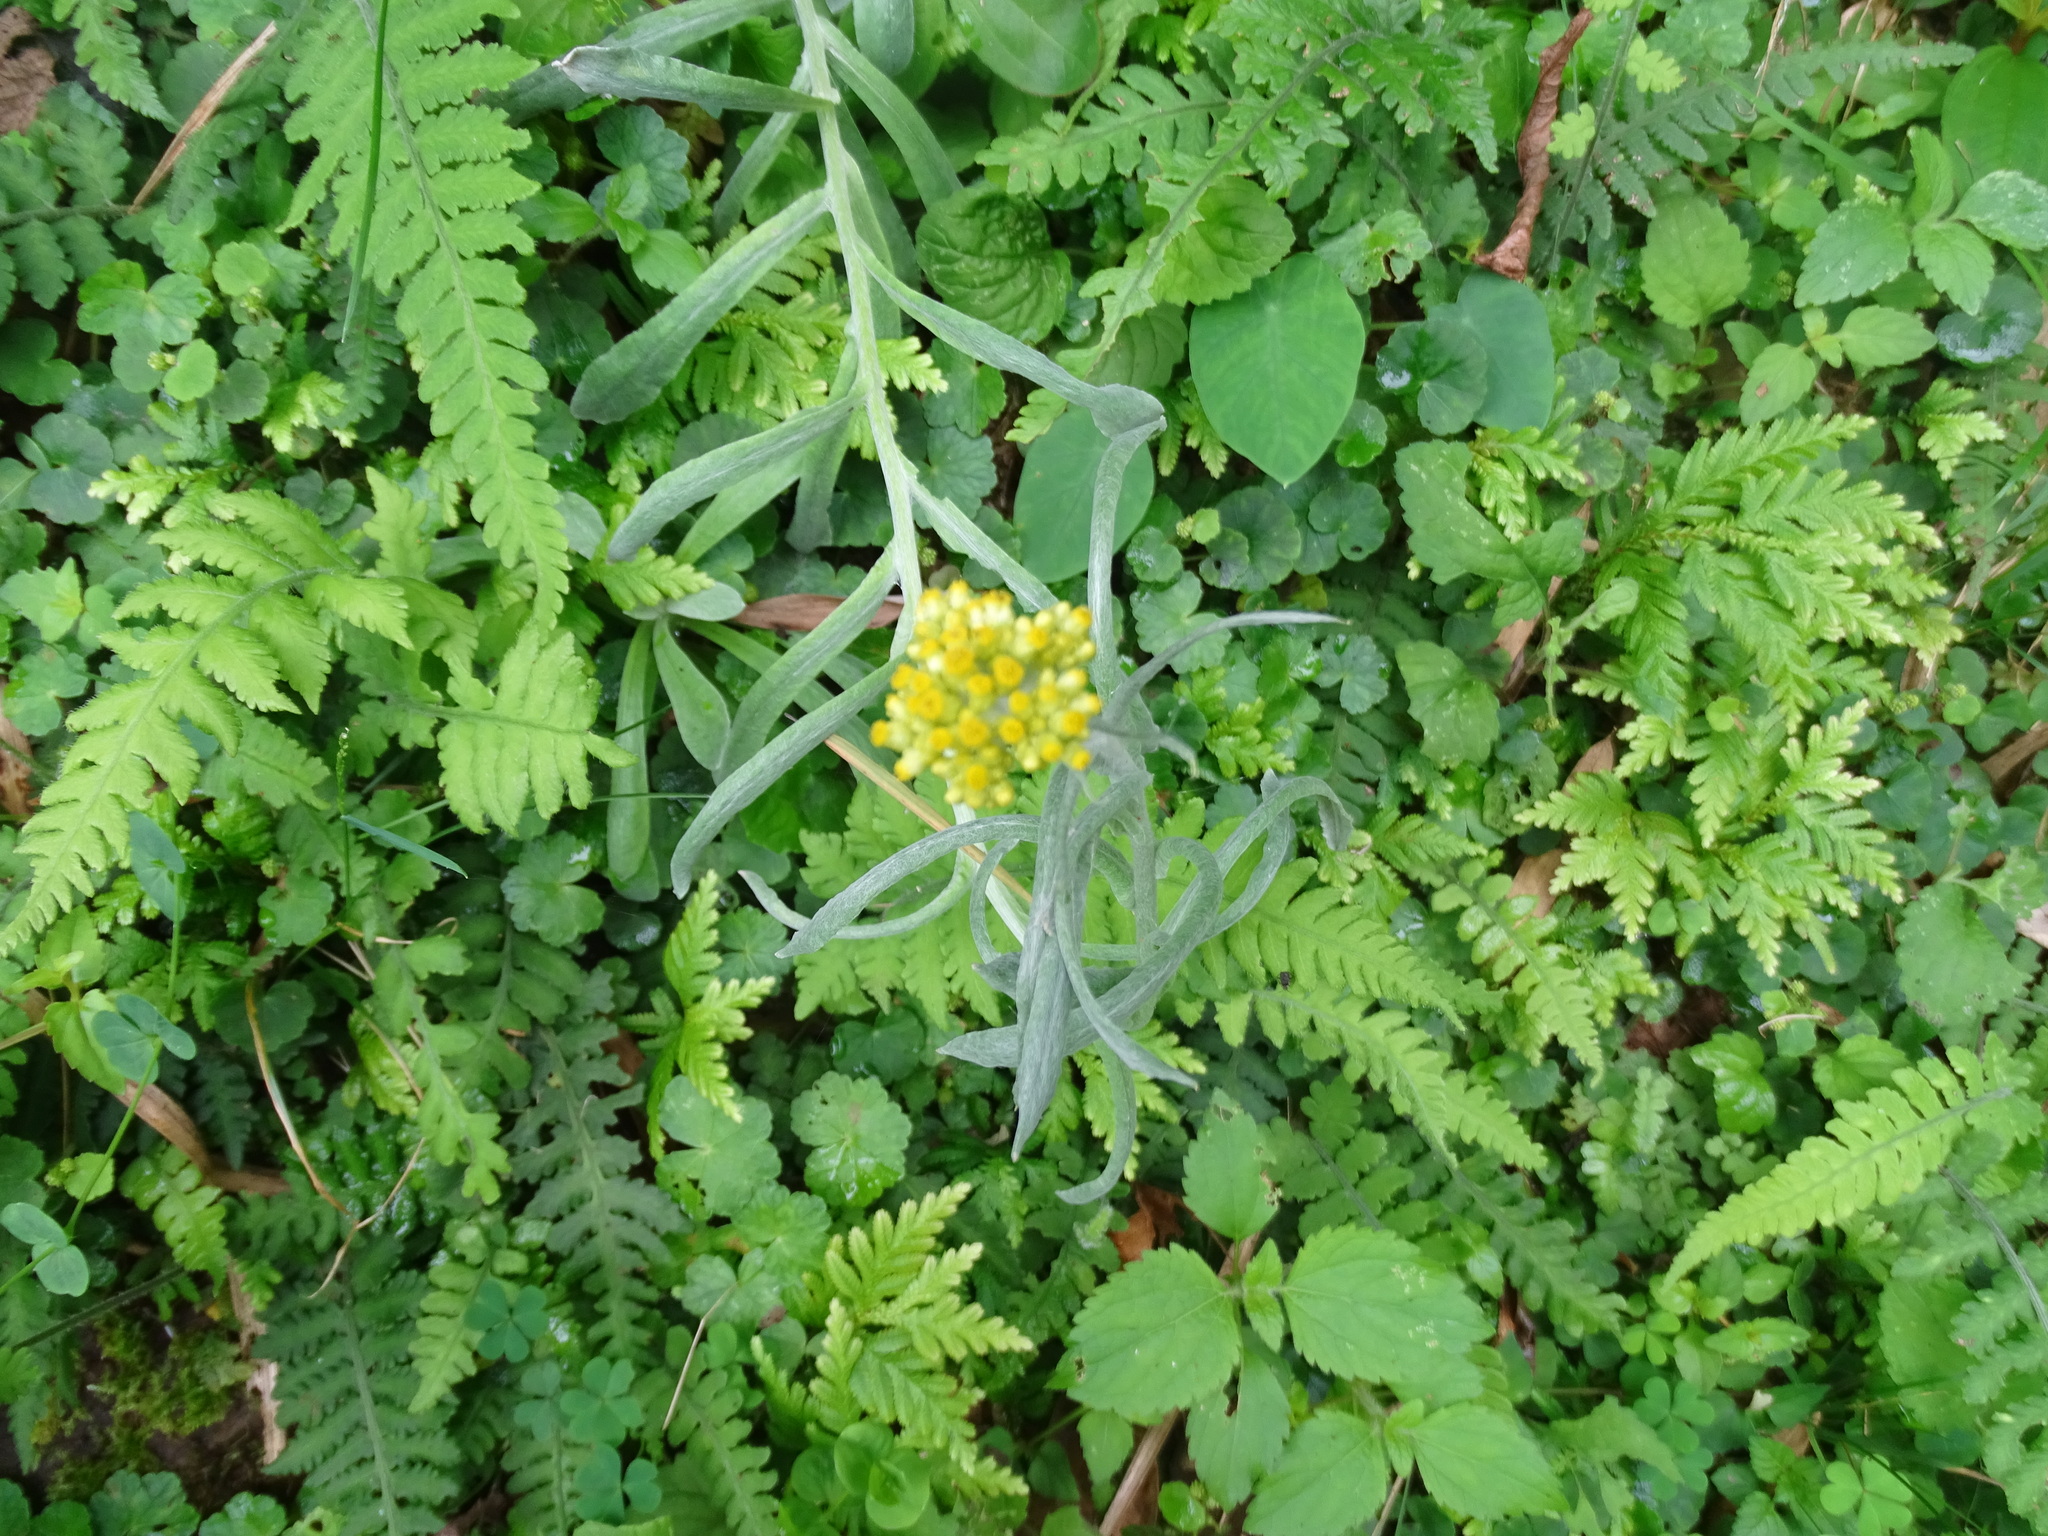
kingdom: Plantae
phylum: Tracheophyta
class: Magnoliopsida
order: Asterales
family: Asteraceae
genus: Pseudognaphalium
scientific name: Pseudognaphalium affine
